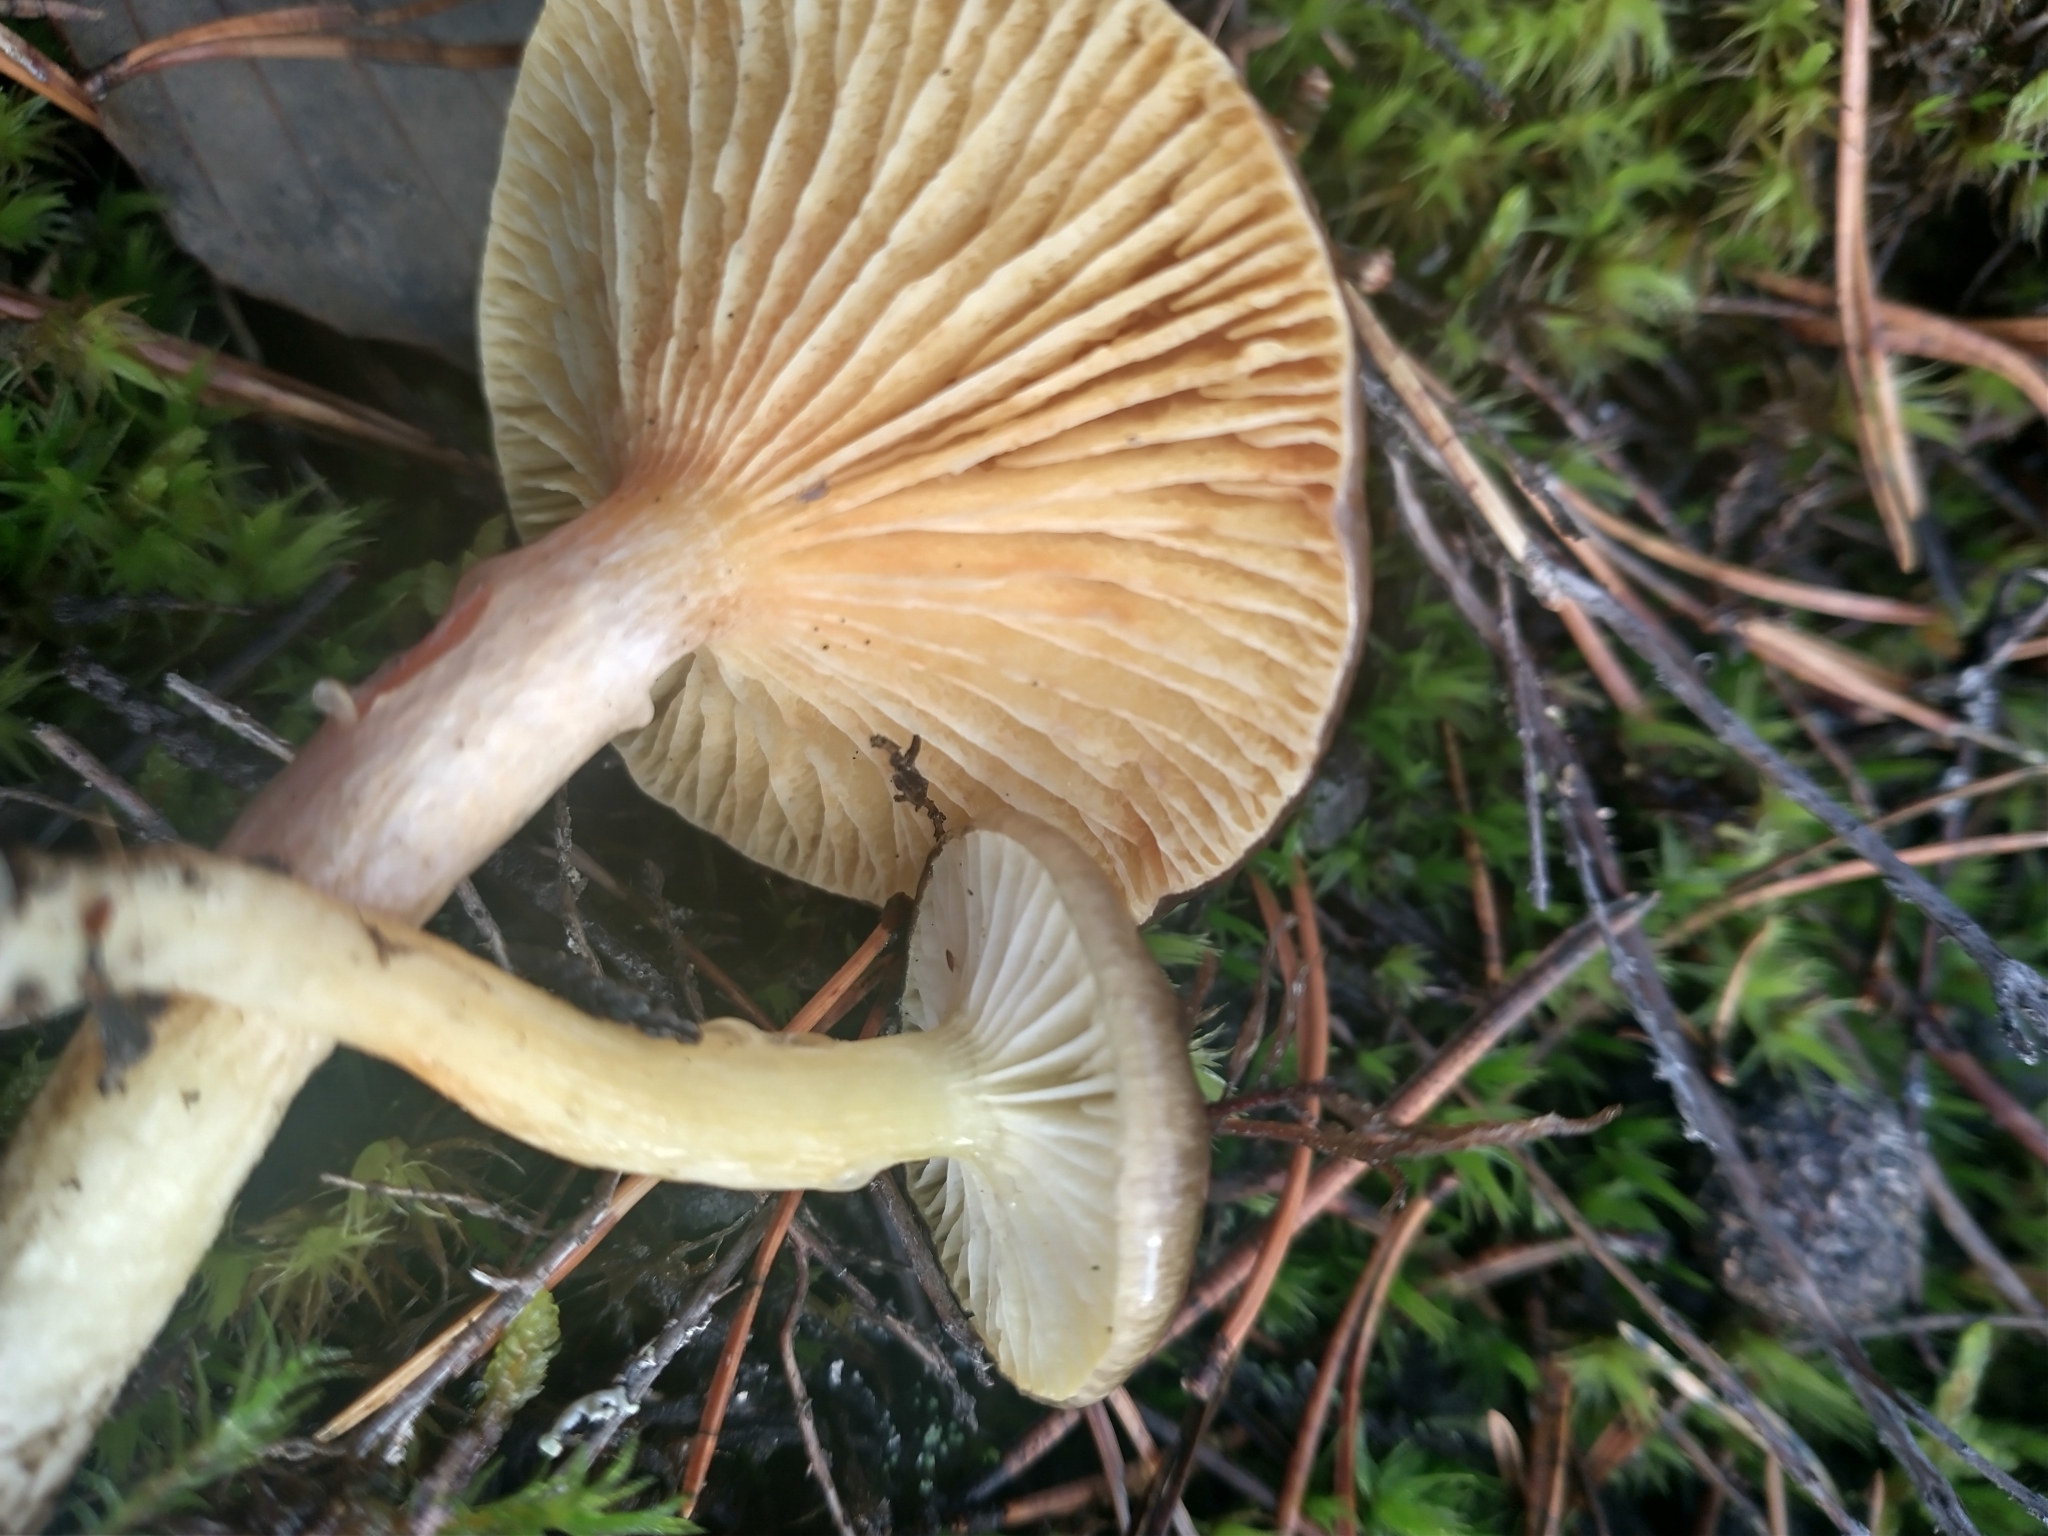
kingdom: Fungi
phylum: Basidiomycota
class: Agaricomycetes
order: Agaricales
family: Hygrophoraceae
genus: Hygrophorus
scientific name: Hygrophorus hypothejus
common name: Herald of winter
